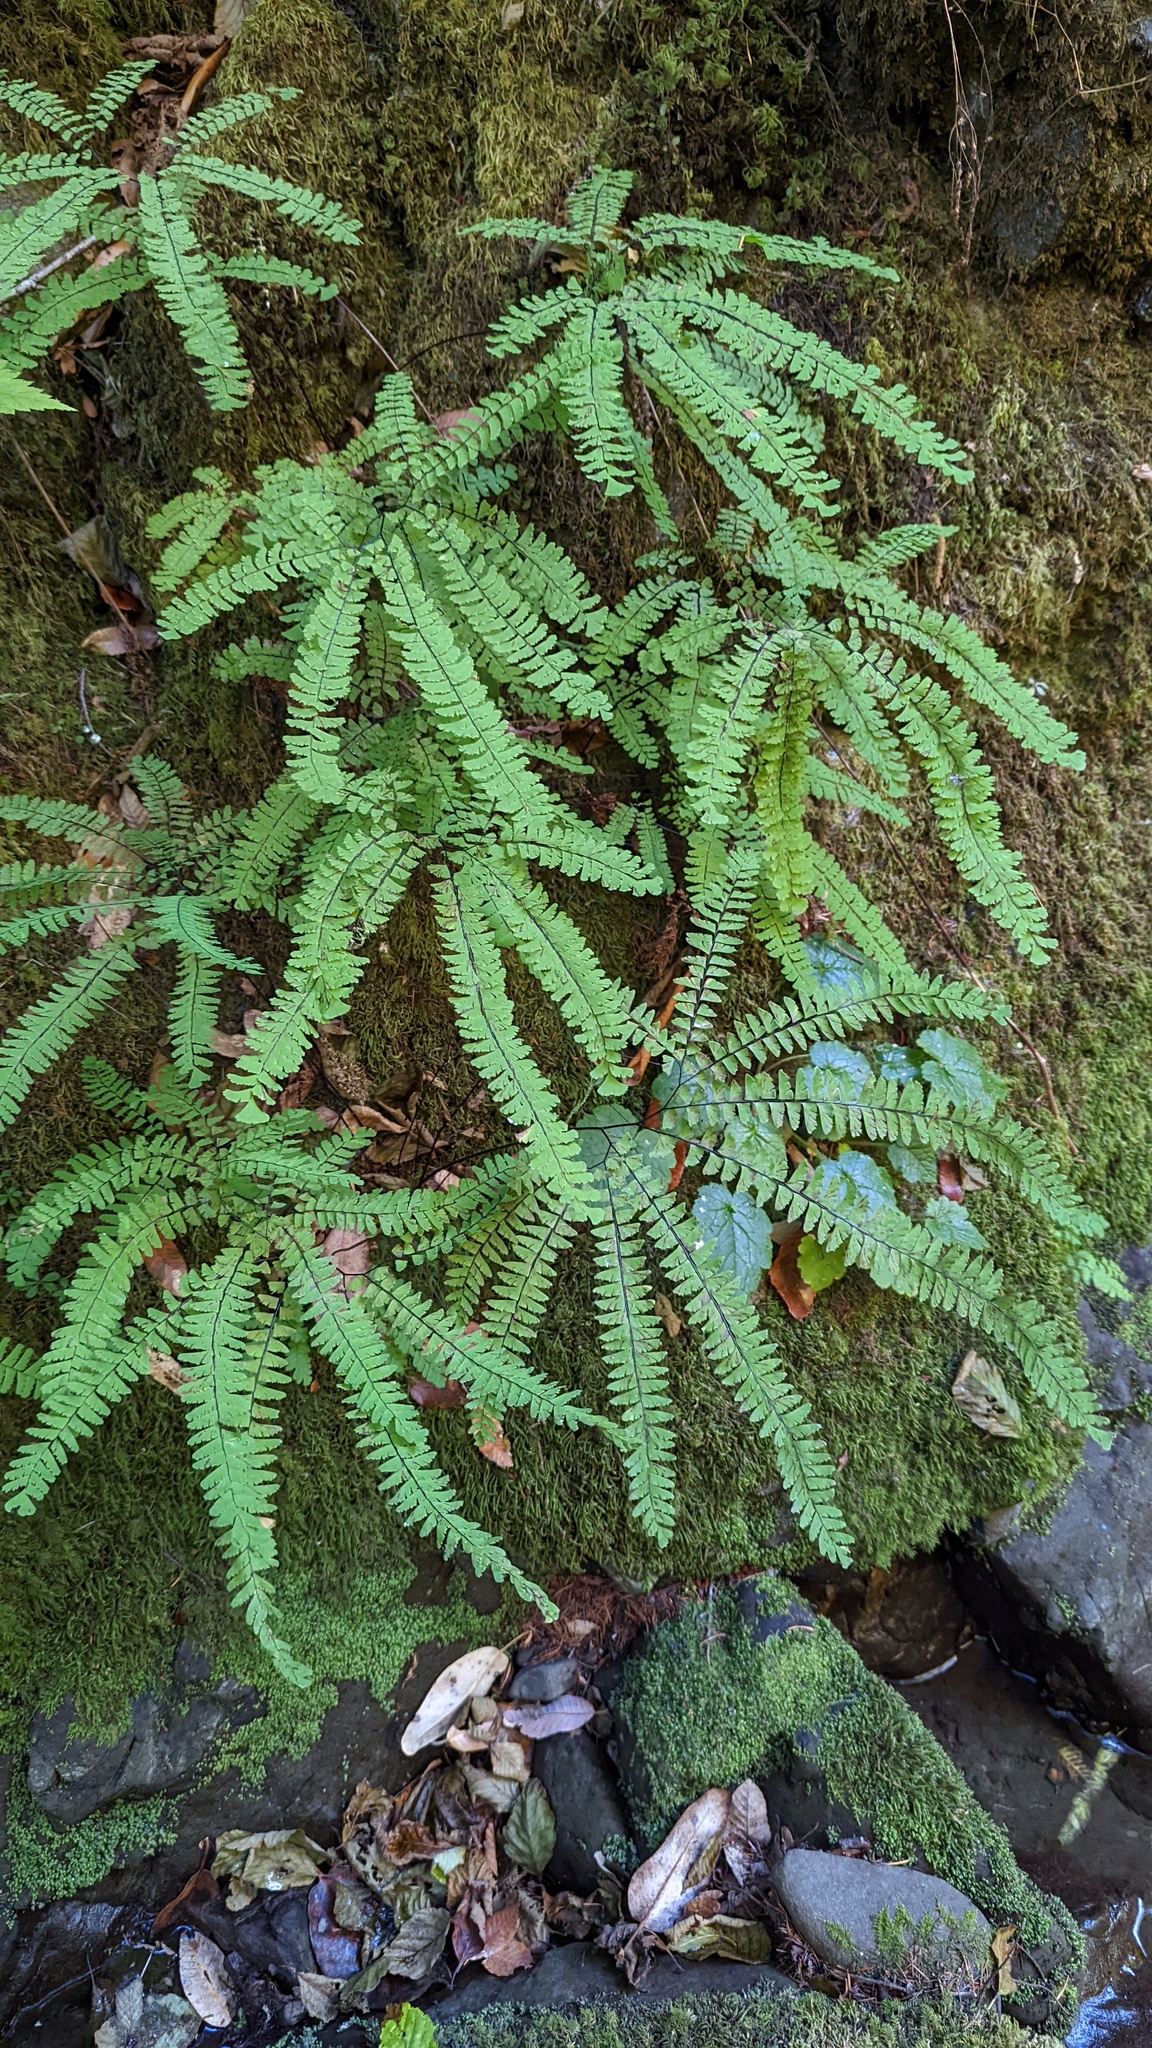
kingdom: Plantae
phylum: Tracheophyta
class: Polypodiopsida
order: Polypodiales
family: Pteridaceae
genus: Adiantum
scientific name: Adiantum aleuticum
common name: Aleutian maidenhair fern
